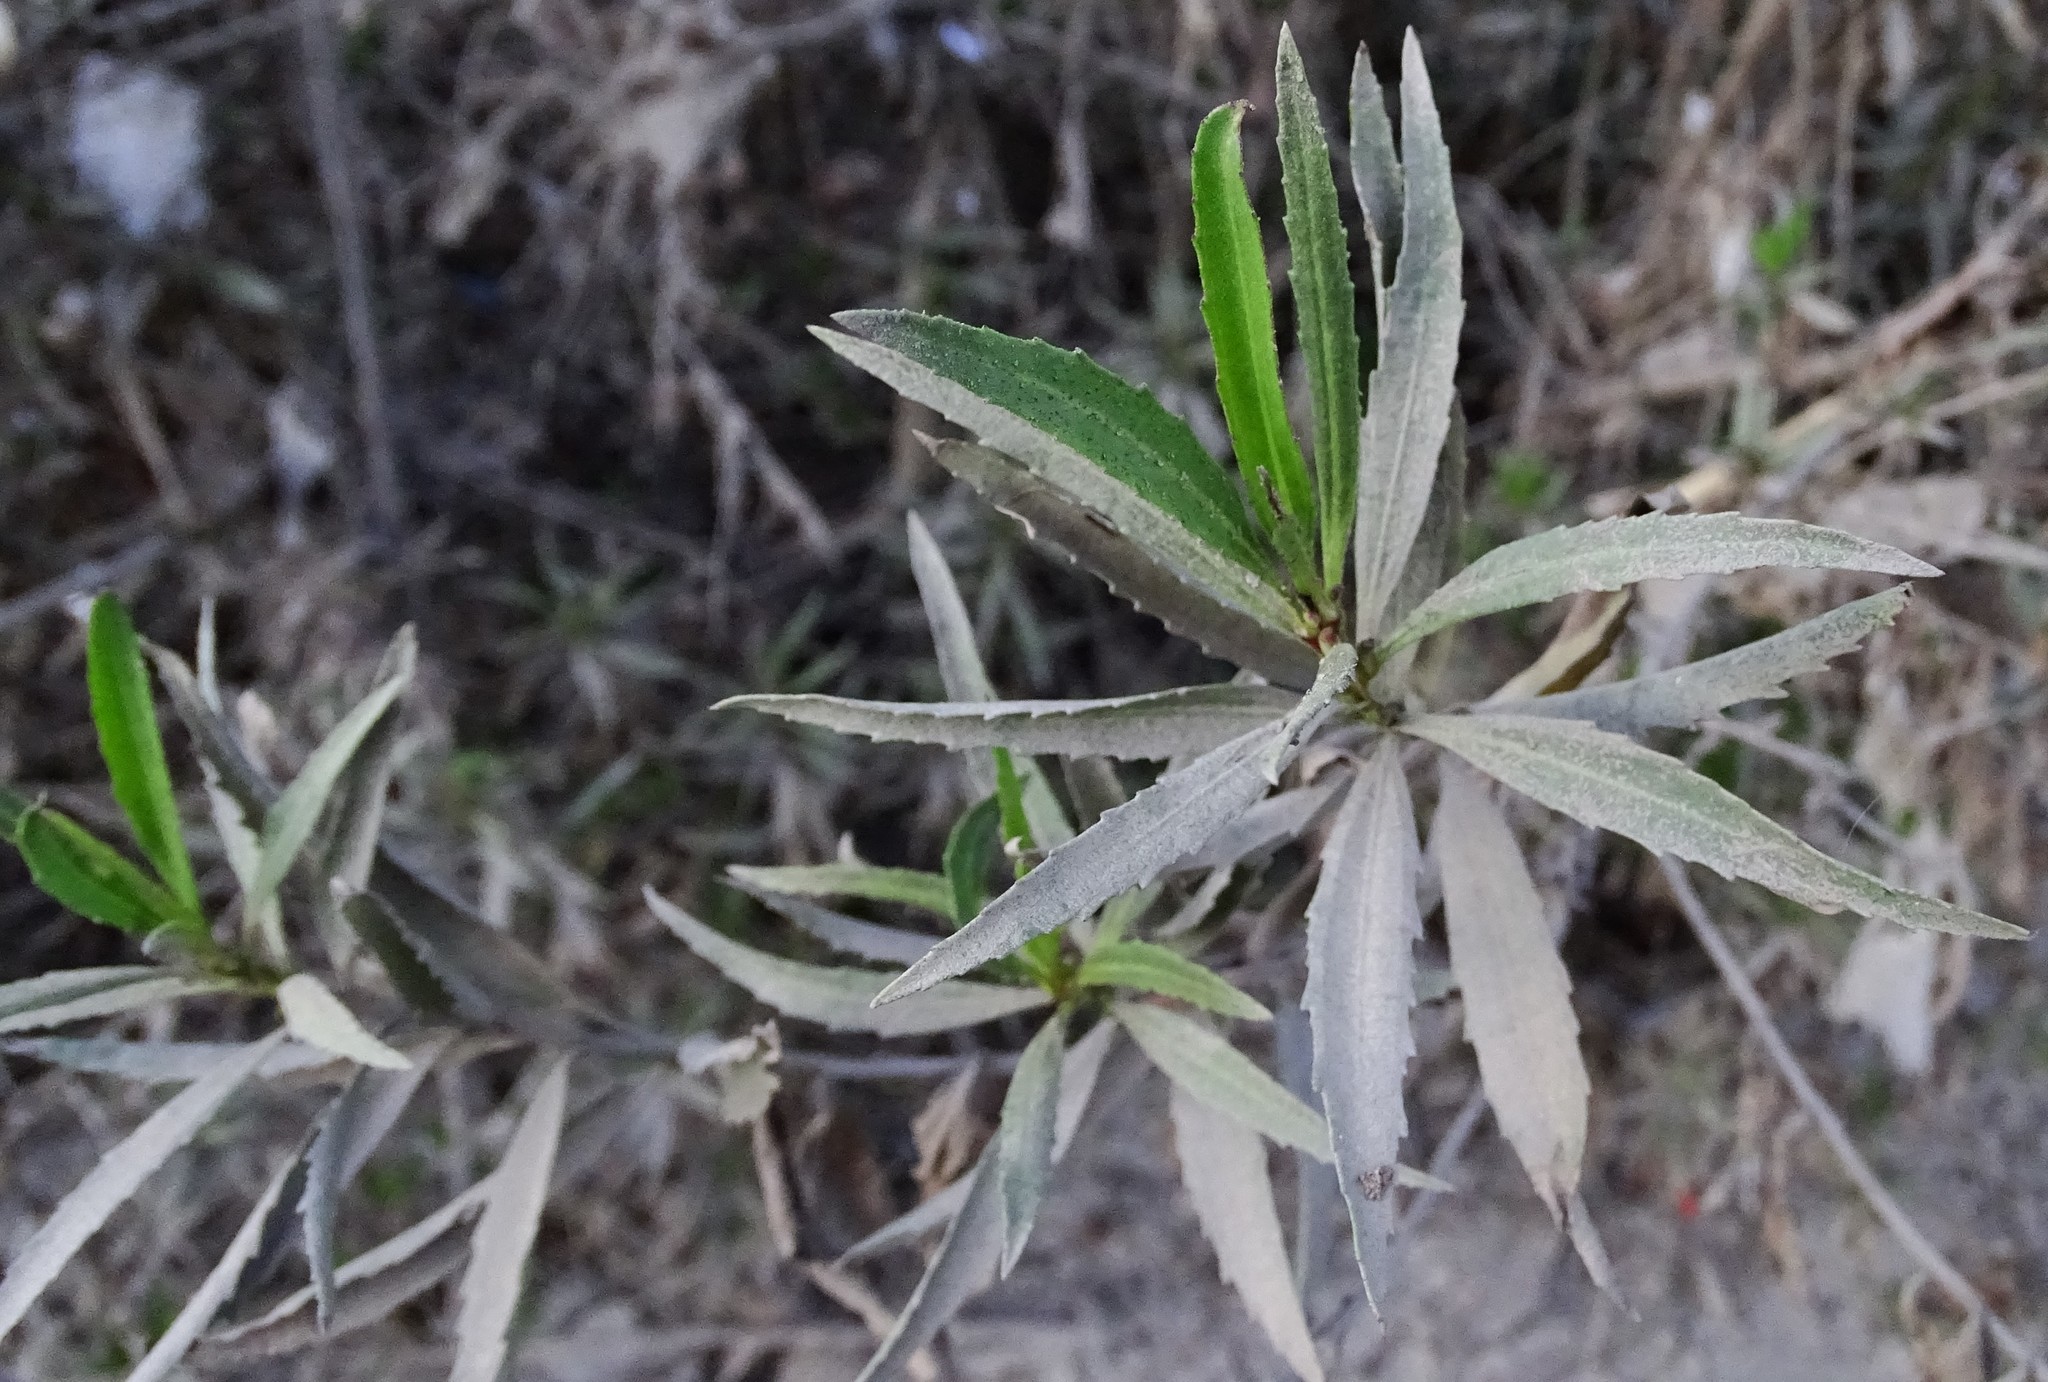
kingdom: Plantae
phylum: Tracheophyta
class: Magnoliopsida
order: Asterales
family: Asteraceae
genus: Baccharis
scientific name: Baccharis salicifolia
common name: Sticky baccharis
